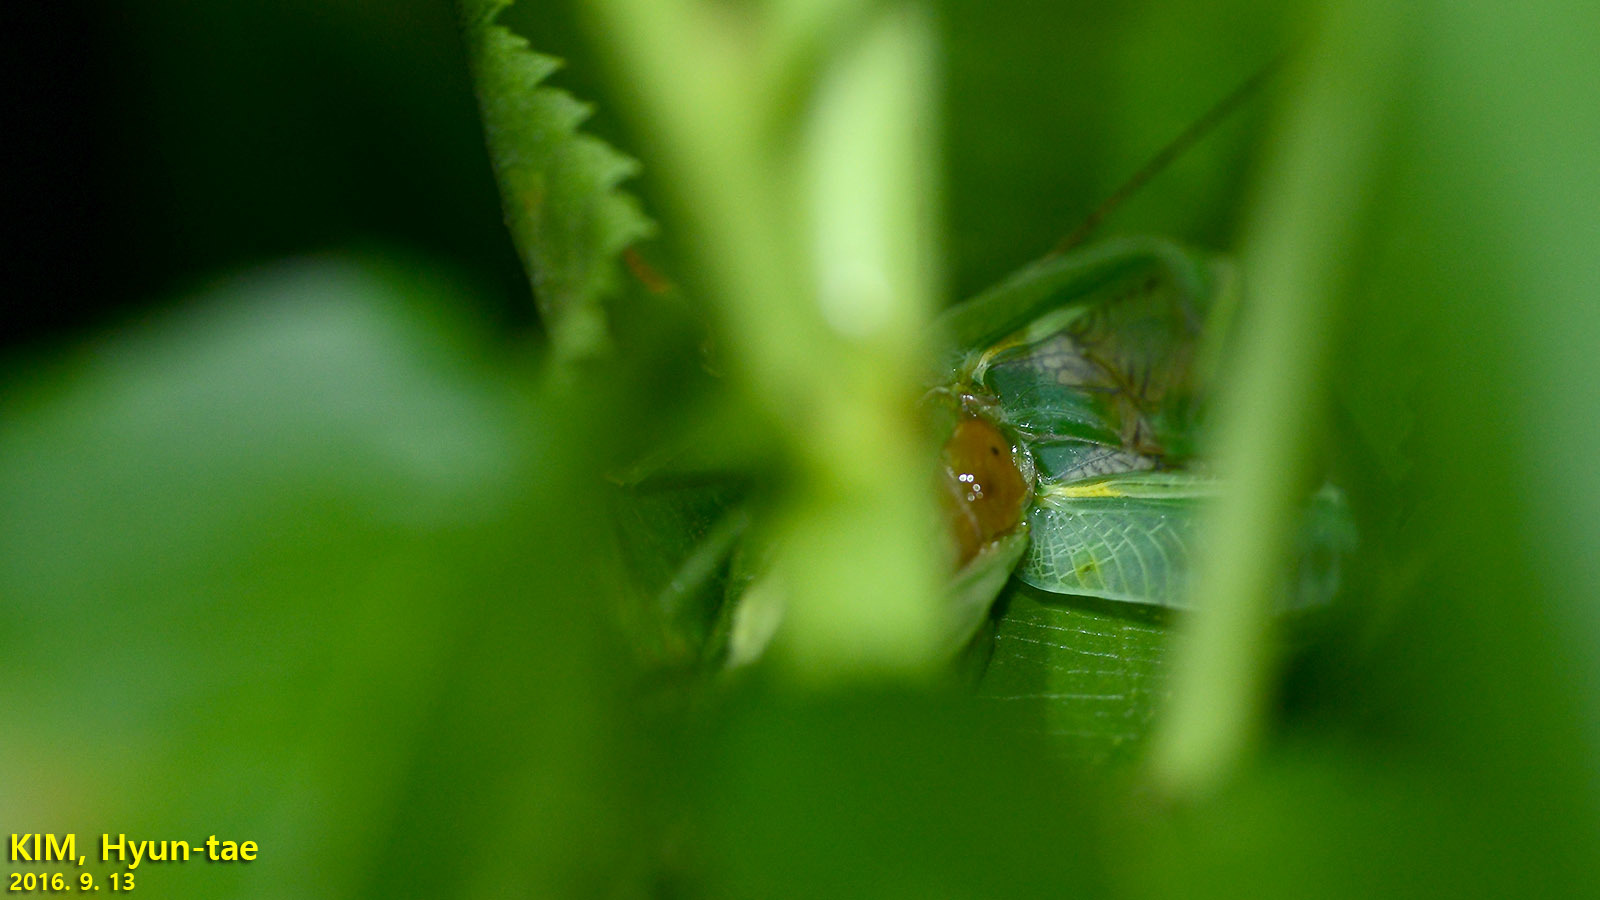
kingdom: Animalia
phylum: Arthropoda
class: Insecta
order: Orthoptera
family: Gryllidae
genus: Truljalia
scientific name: Truljalia hibinonis
